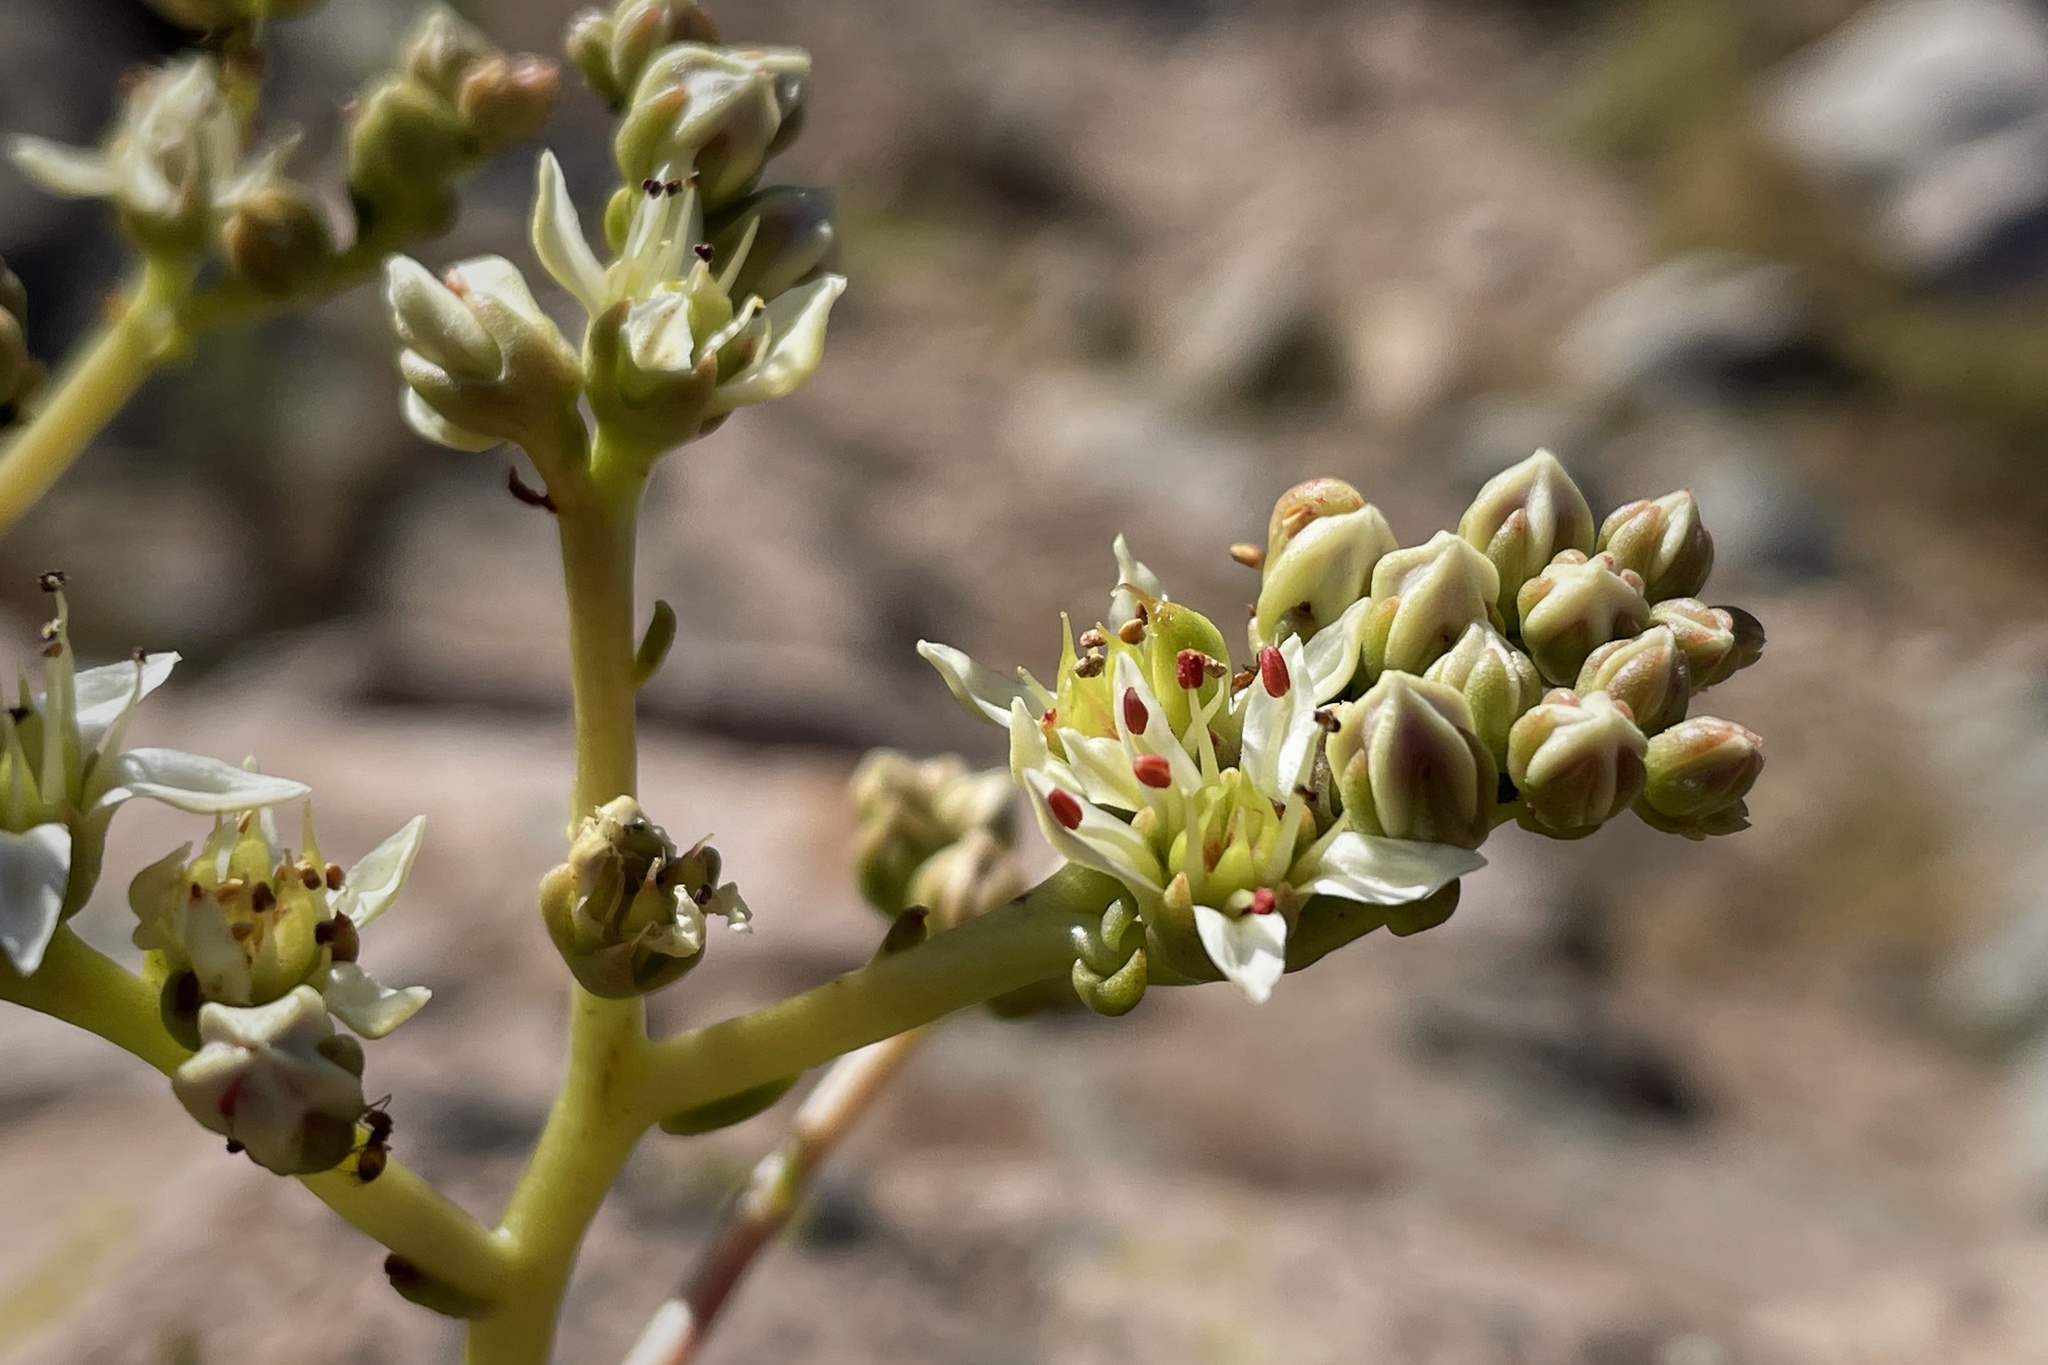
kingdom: Plantae
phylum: Tracheophyta
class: Magnoliopsida
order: Saxifragales
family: Crassulaceae
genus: Dudleya
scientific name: Dudleya edulis
